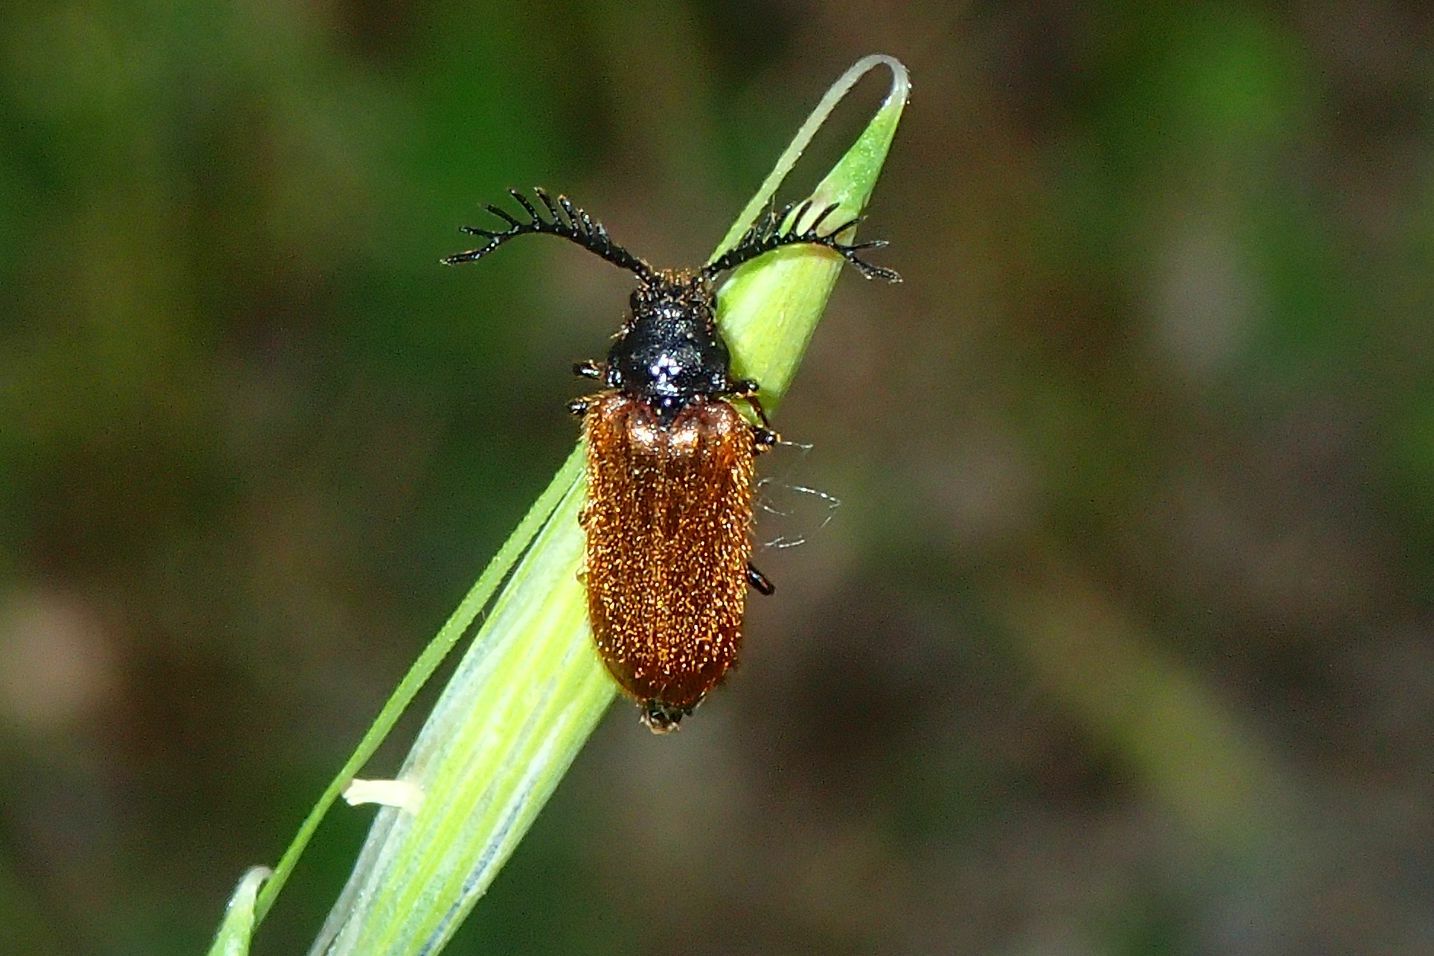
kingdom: Animalia
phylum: Arthropoda
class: Insecta
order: Coleoptera
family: Drilidae
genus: Drilus
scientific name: Drilus flavescens
